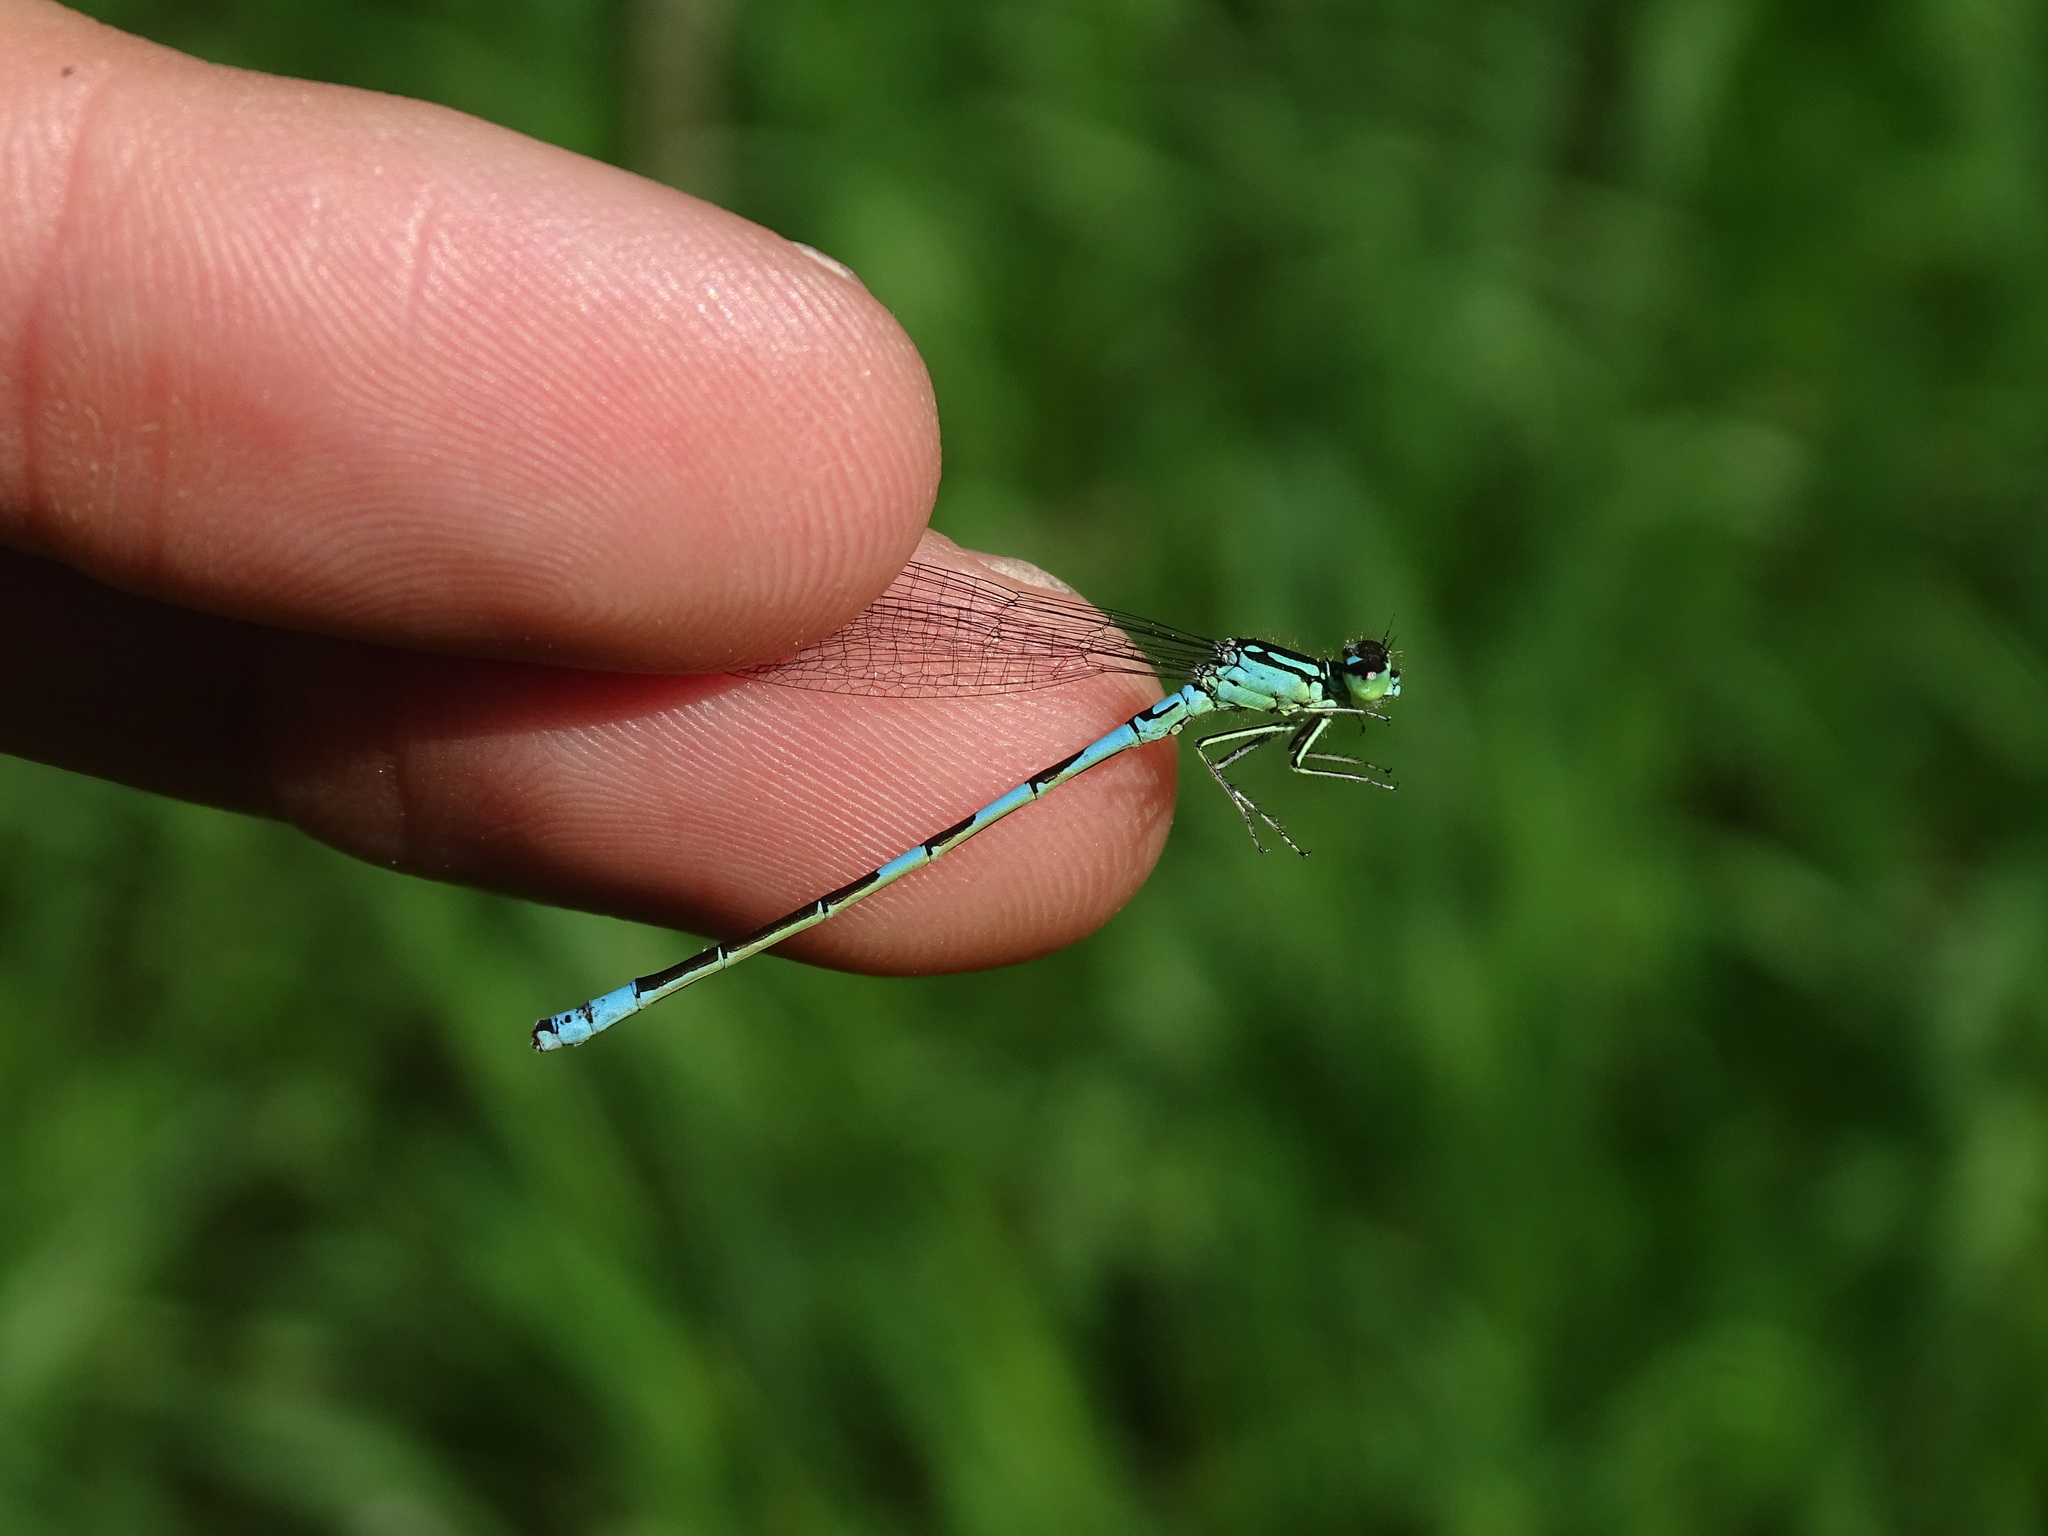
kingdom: Animalia
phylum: Arthropoda
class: Insecta
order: Odonata
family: Coenagrionidae
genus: Coenagrion
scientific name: Coenagrion resolutum
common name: Taiga bluet
